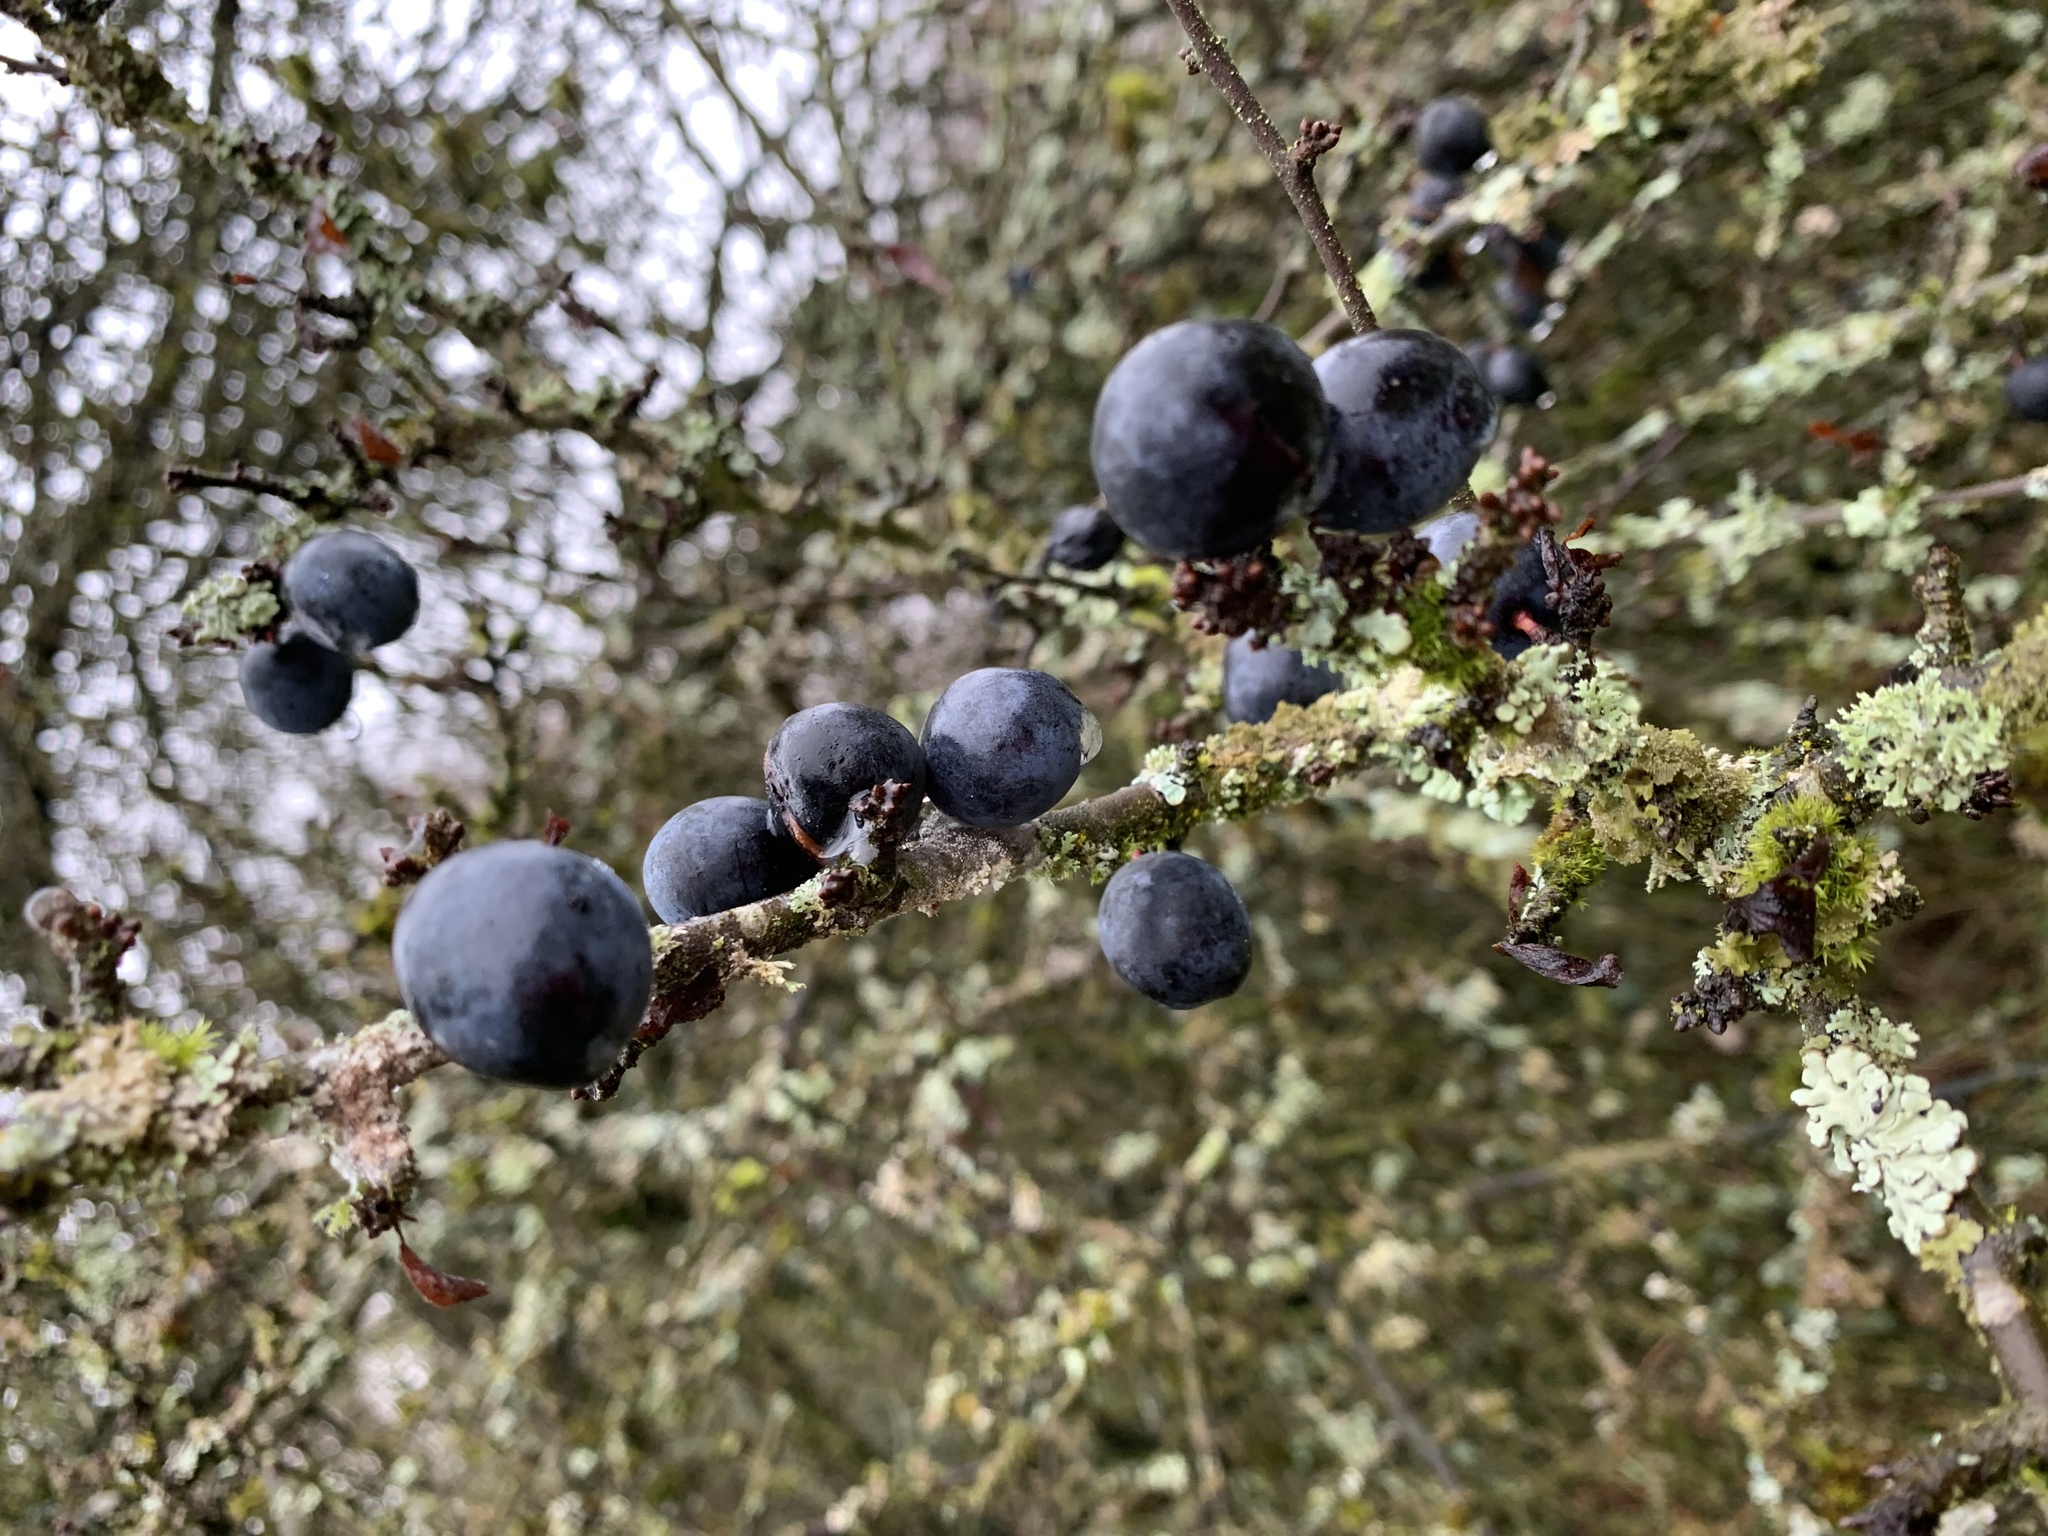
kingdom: Plantae
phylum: Tracheophyta
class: Magnoliopsida
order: Rosales
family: Rosaceae
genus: Prunus
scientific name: Prunus spinosa
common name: Blackthorn
